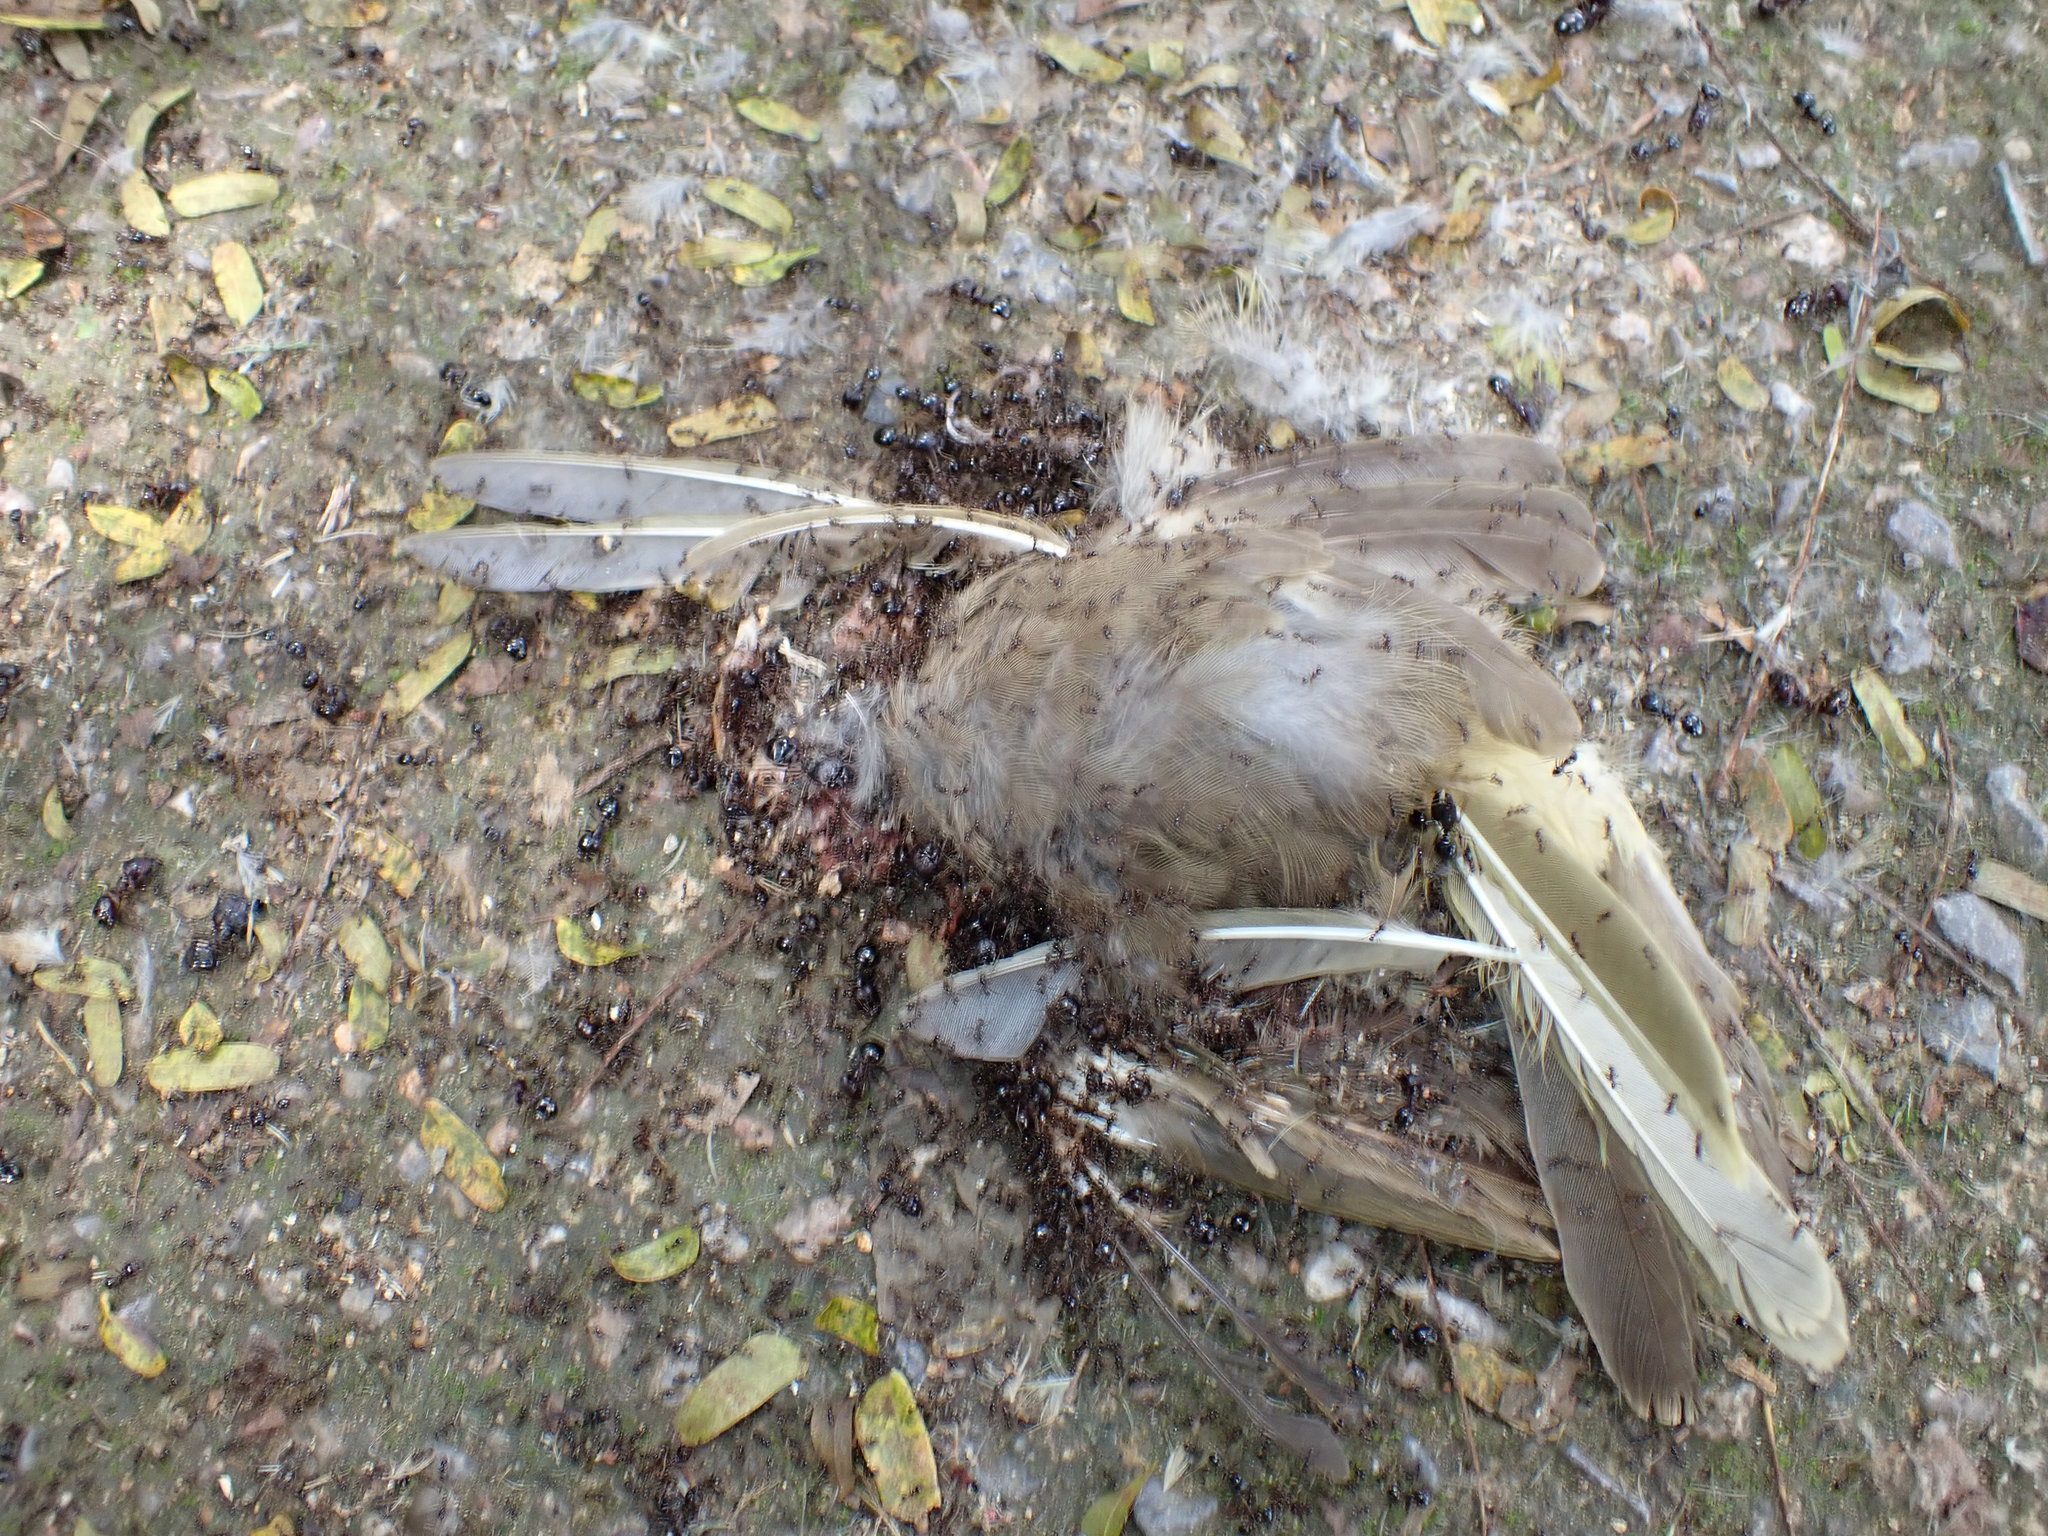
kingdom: Animalia
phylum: Chordata
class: Aves
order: Passeriformes
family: Pycnonotidae
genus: Pycnonotus
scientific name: Pycnonotus blanfordi
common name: Streak-eared bulbul
